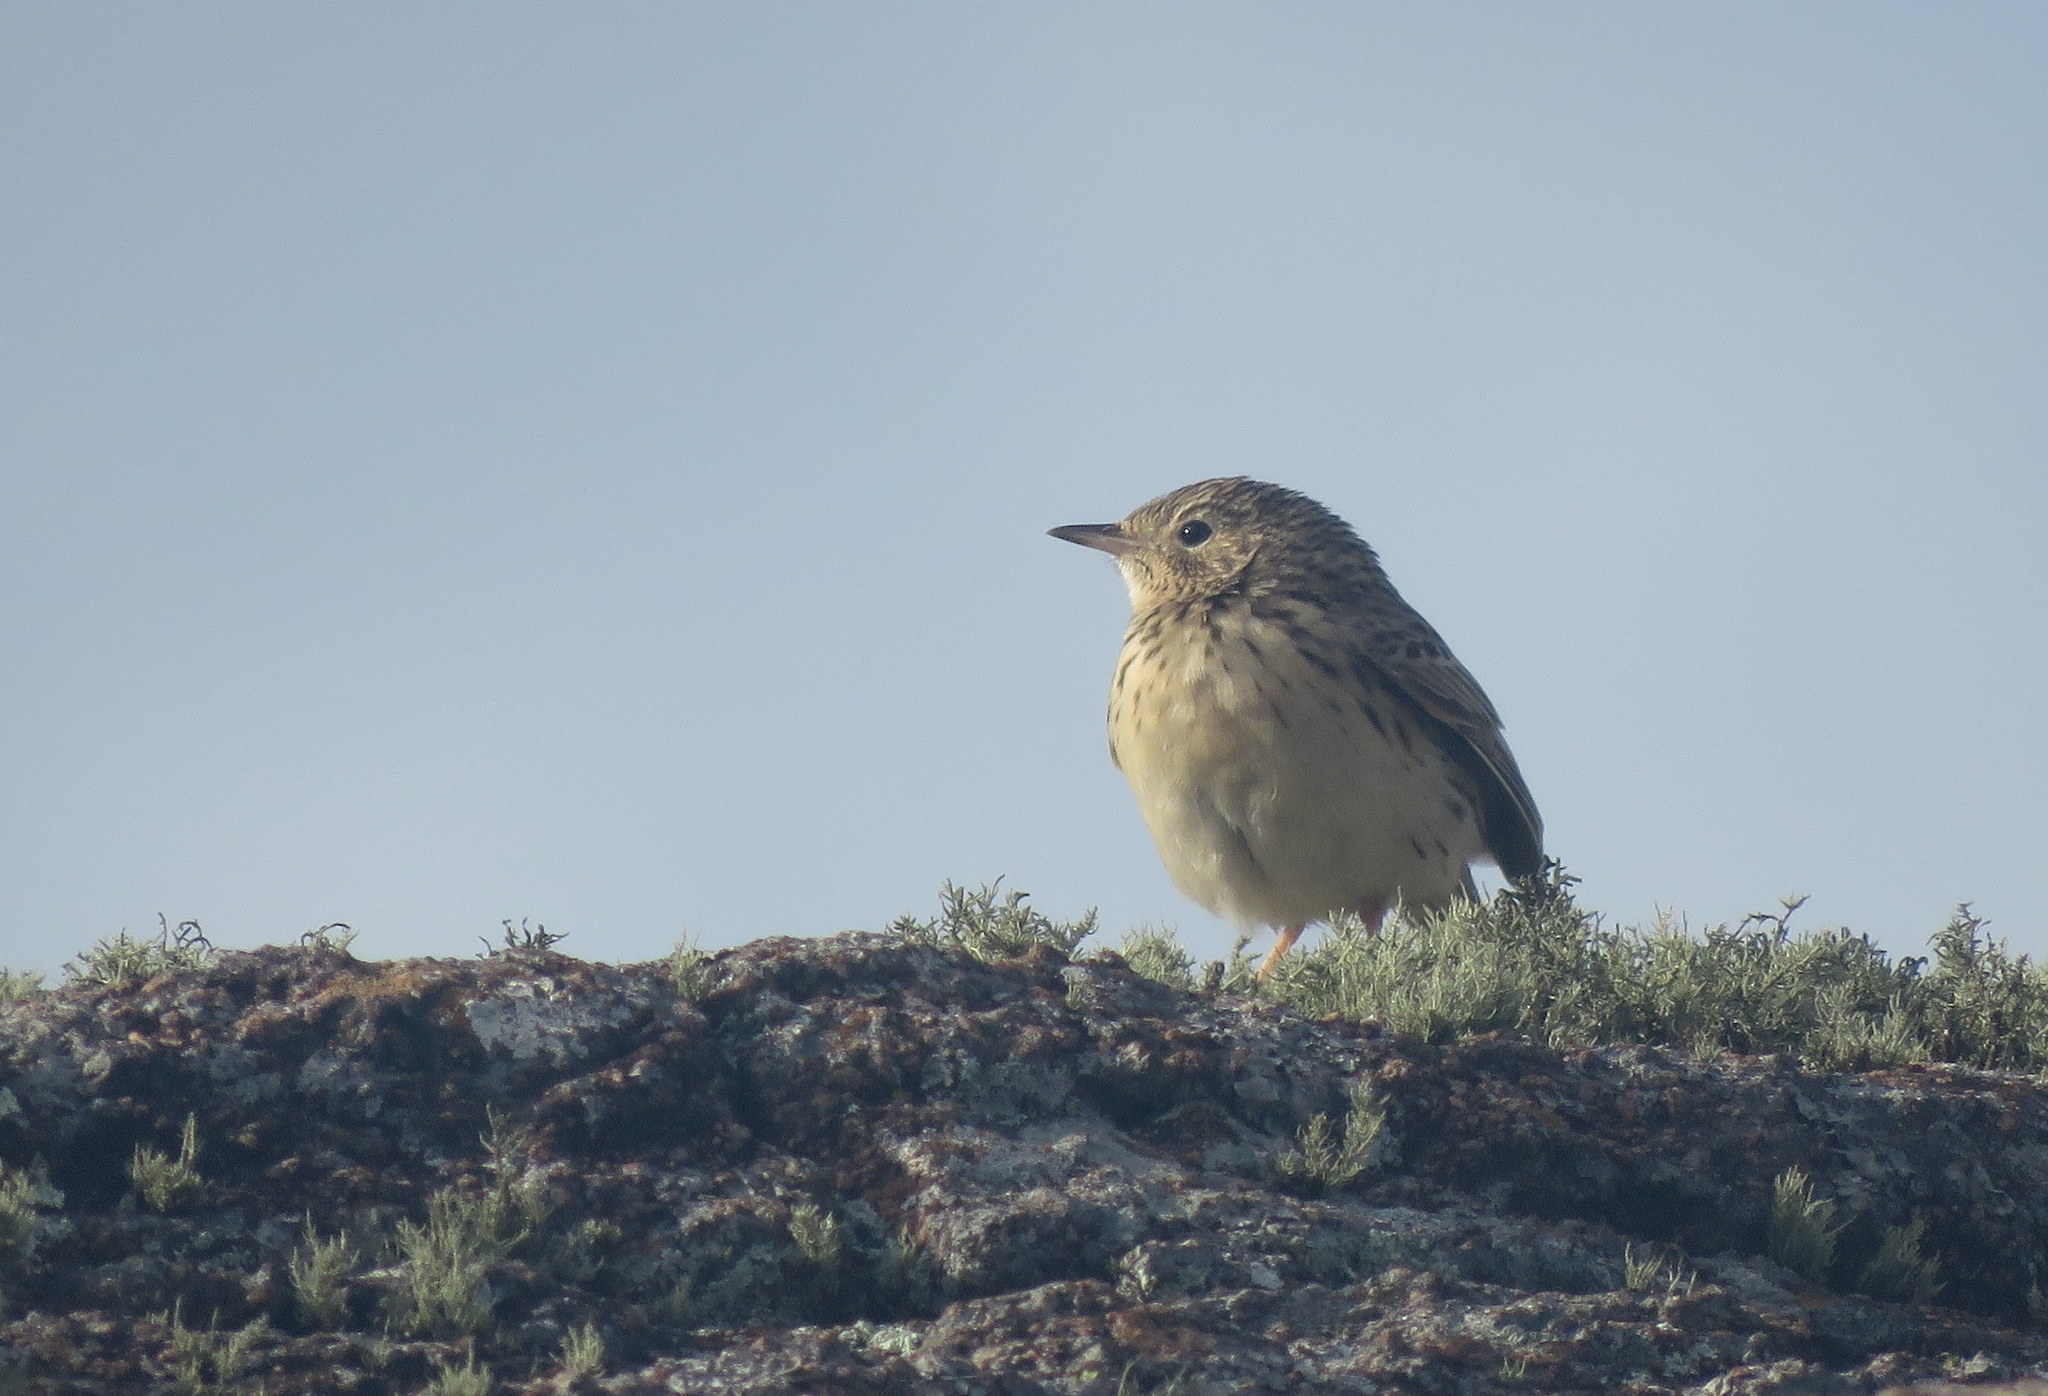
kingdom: Animalia
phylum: Chordata
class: Aves
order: Passeriformes
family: Motacillidae
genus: Anthus
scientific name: Anthus hellmayri
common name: Hellmayr's pipit
